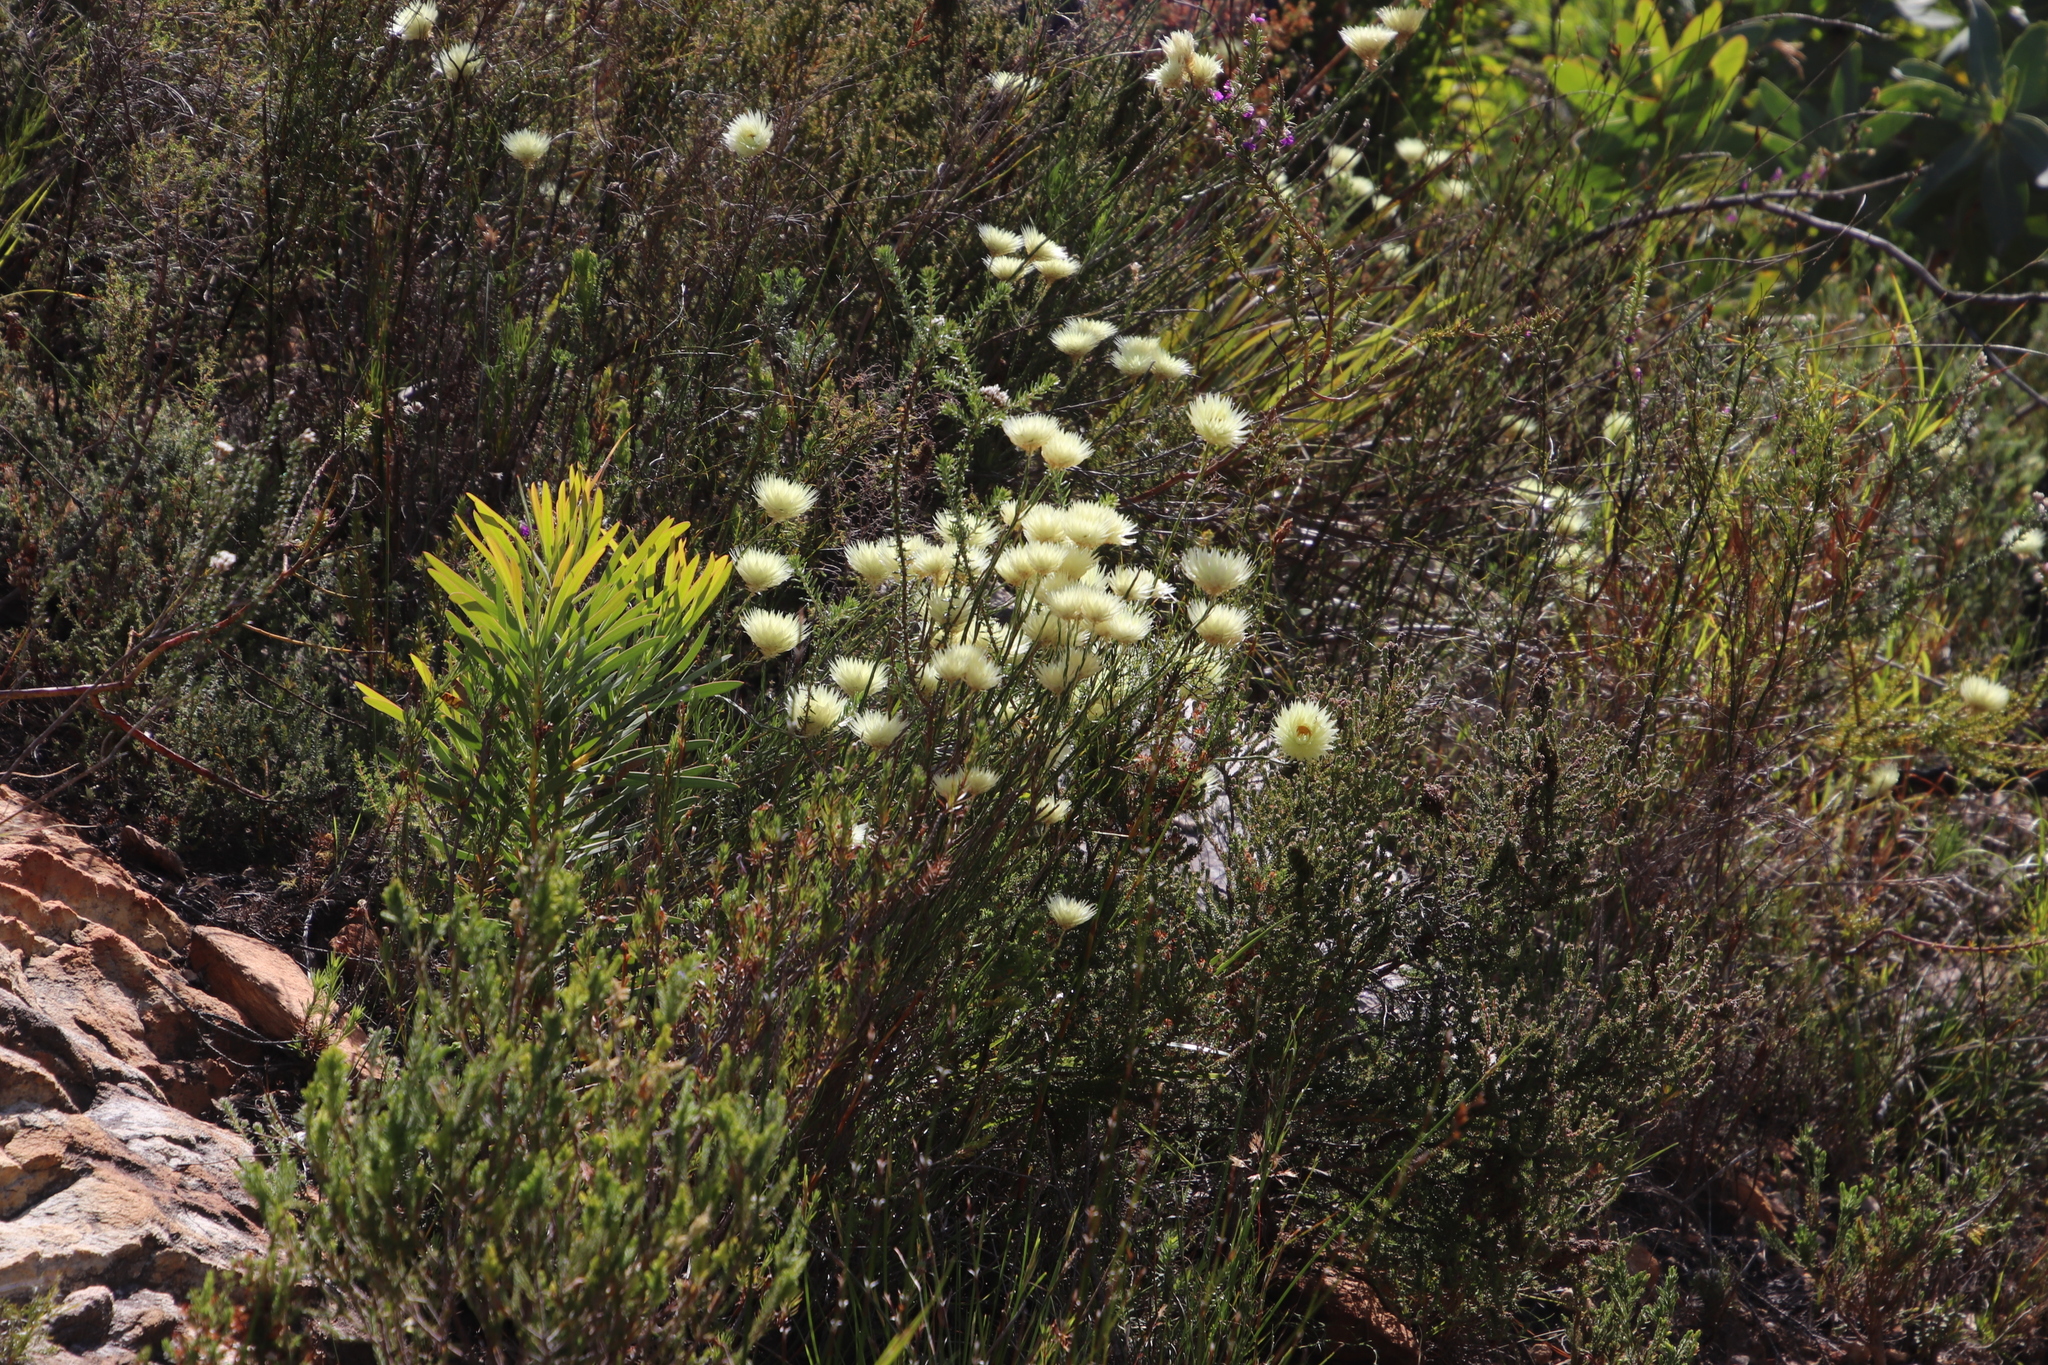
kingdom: Plantae
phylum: Tracheophyta
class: Magnoliopsida
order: Asterales
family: Asteraceae
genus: Edmondia
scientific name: Edmondia sesamoides
